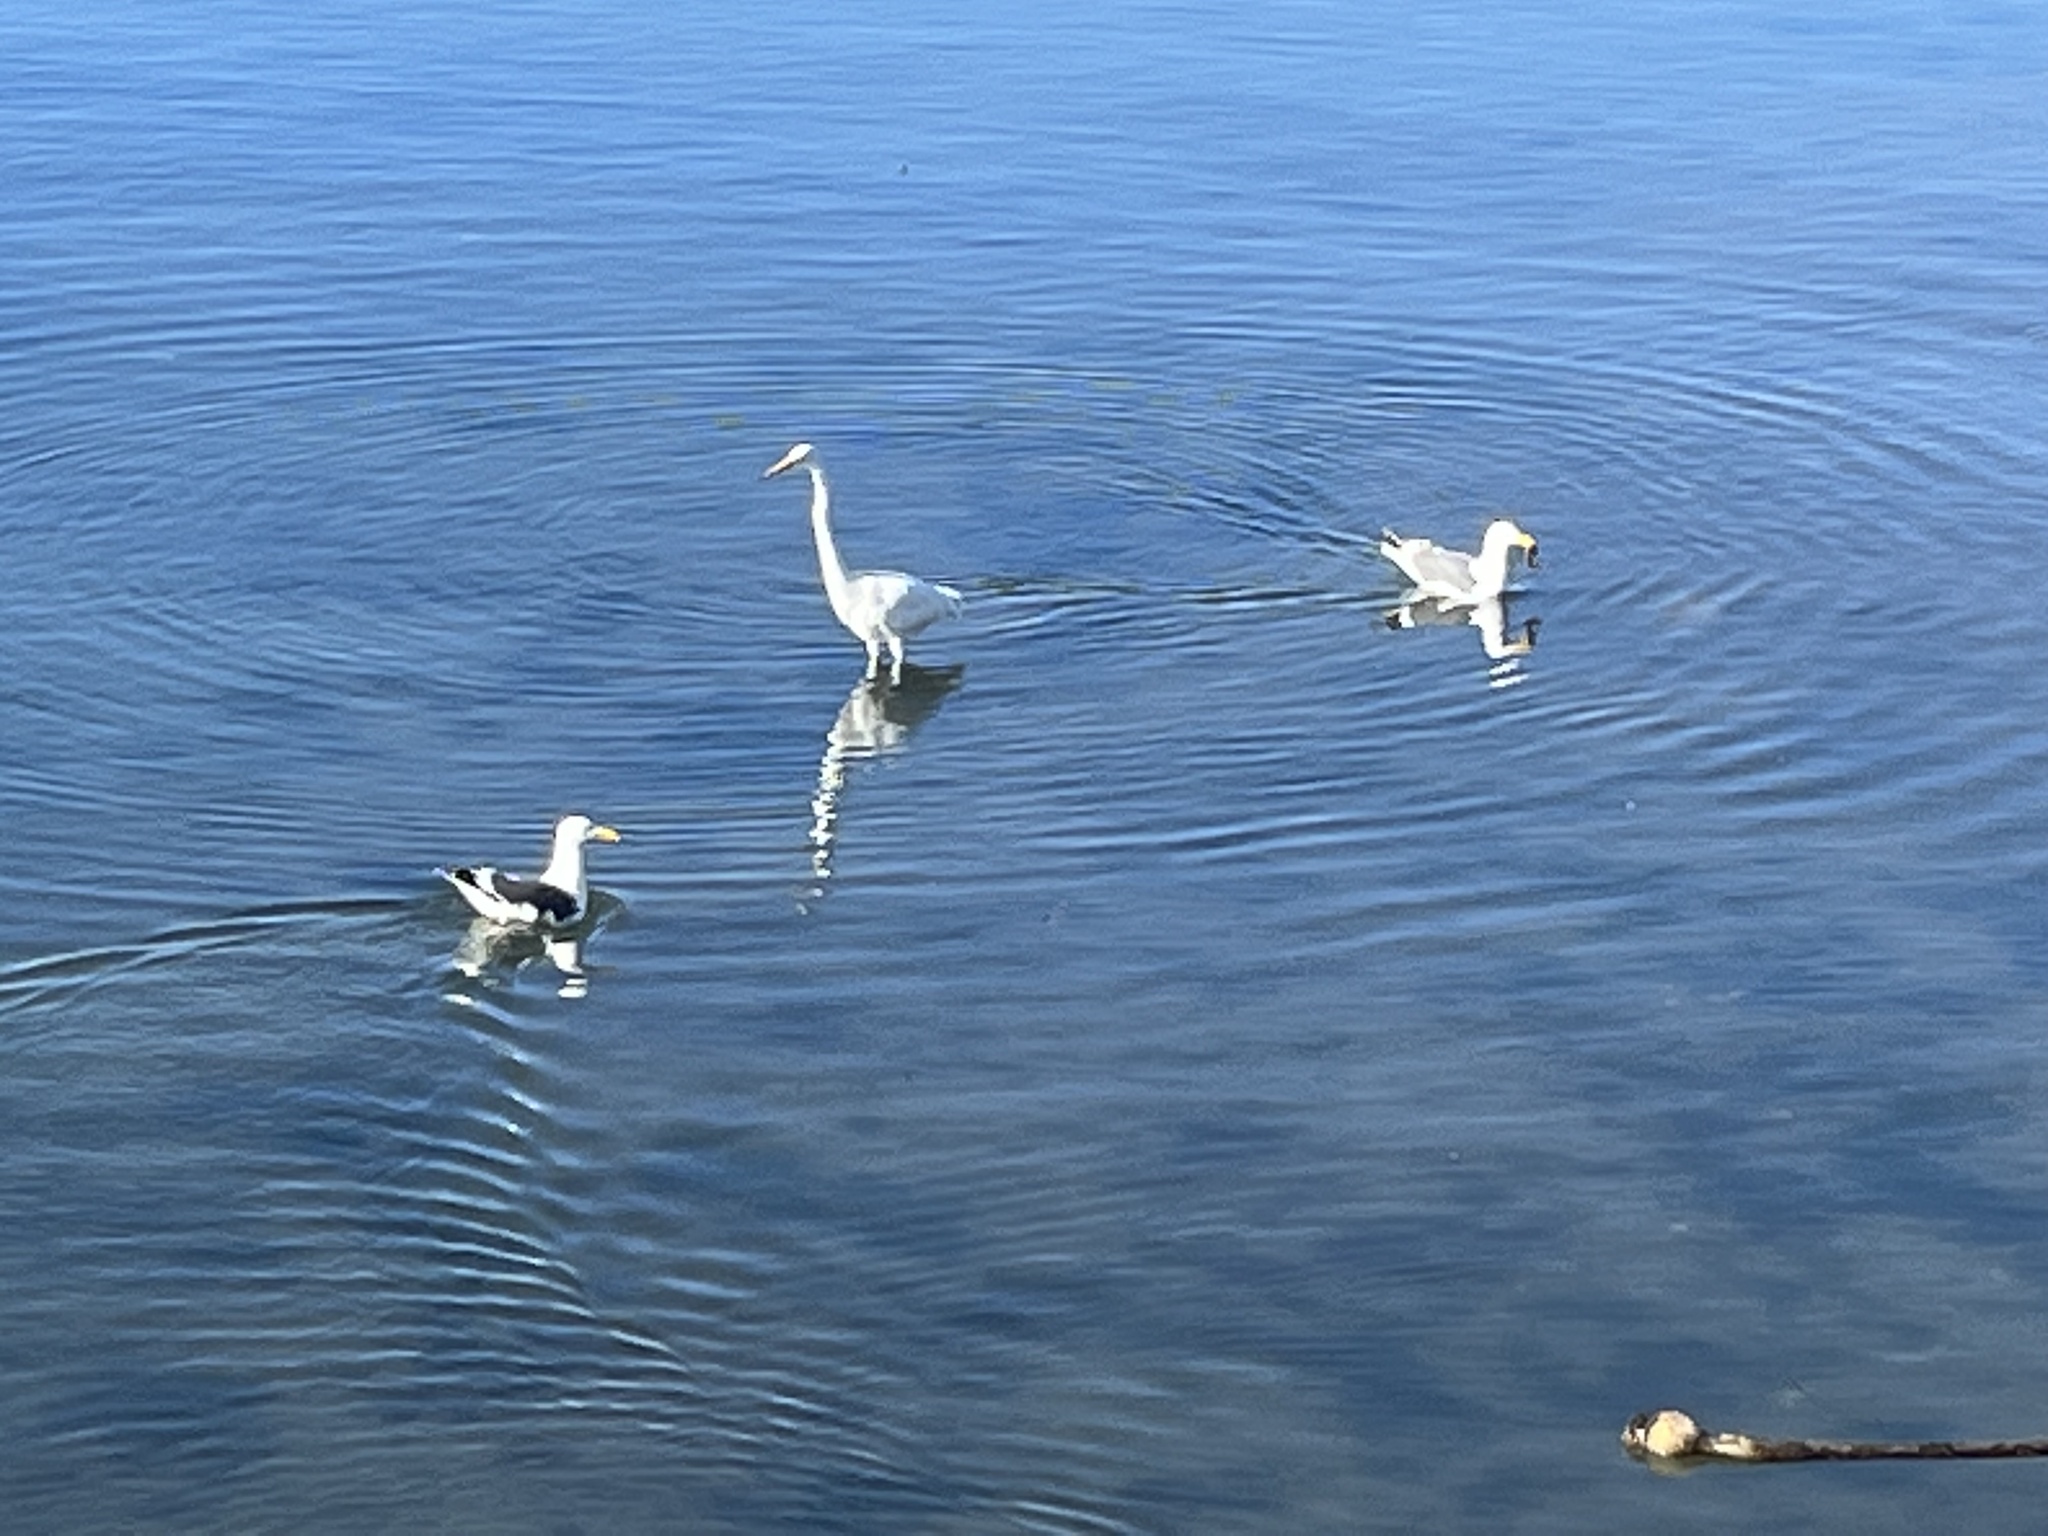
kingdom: Animalia
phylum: Chordata
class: Aves
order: Pelecaniformes
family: Ardeidae
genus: Ardea
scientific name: Ardea alba
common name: Great egret
